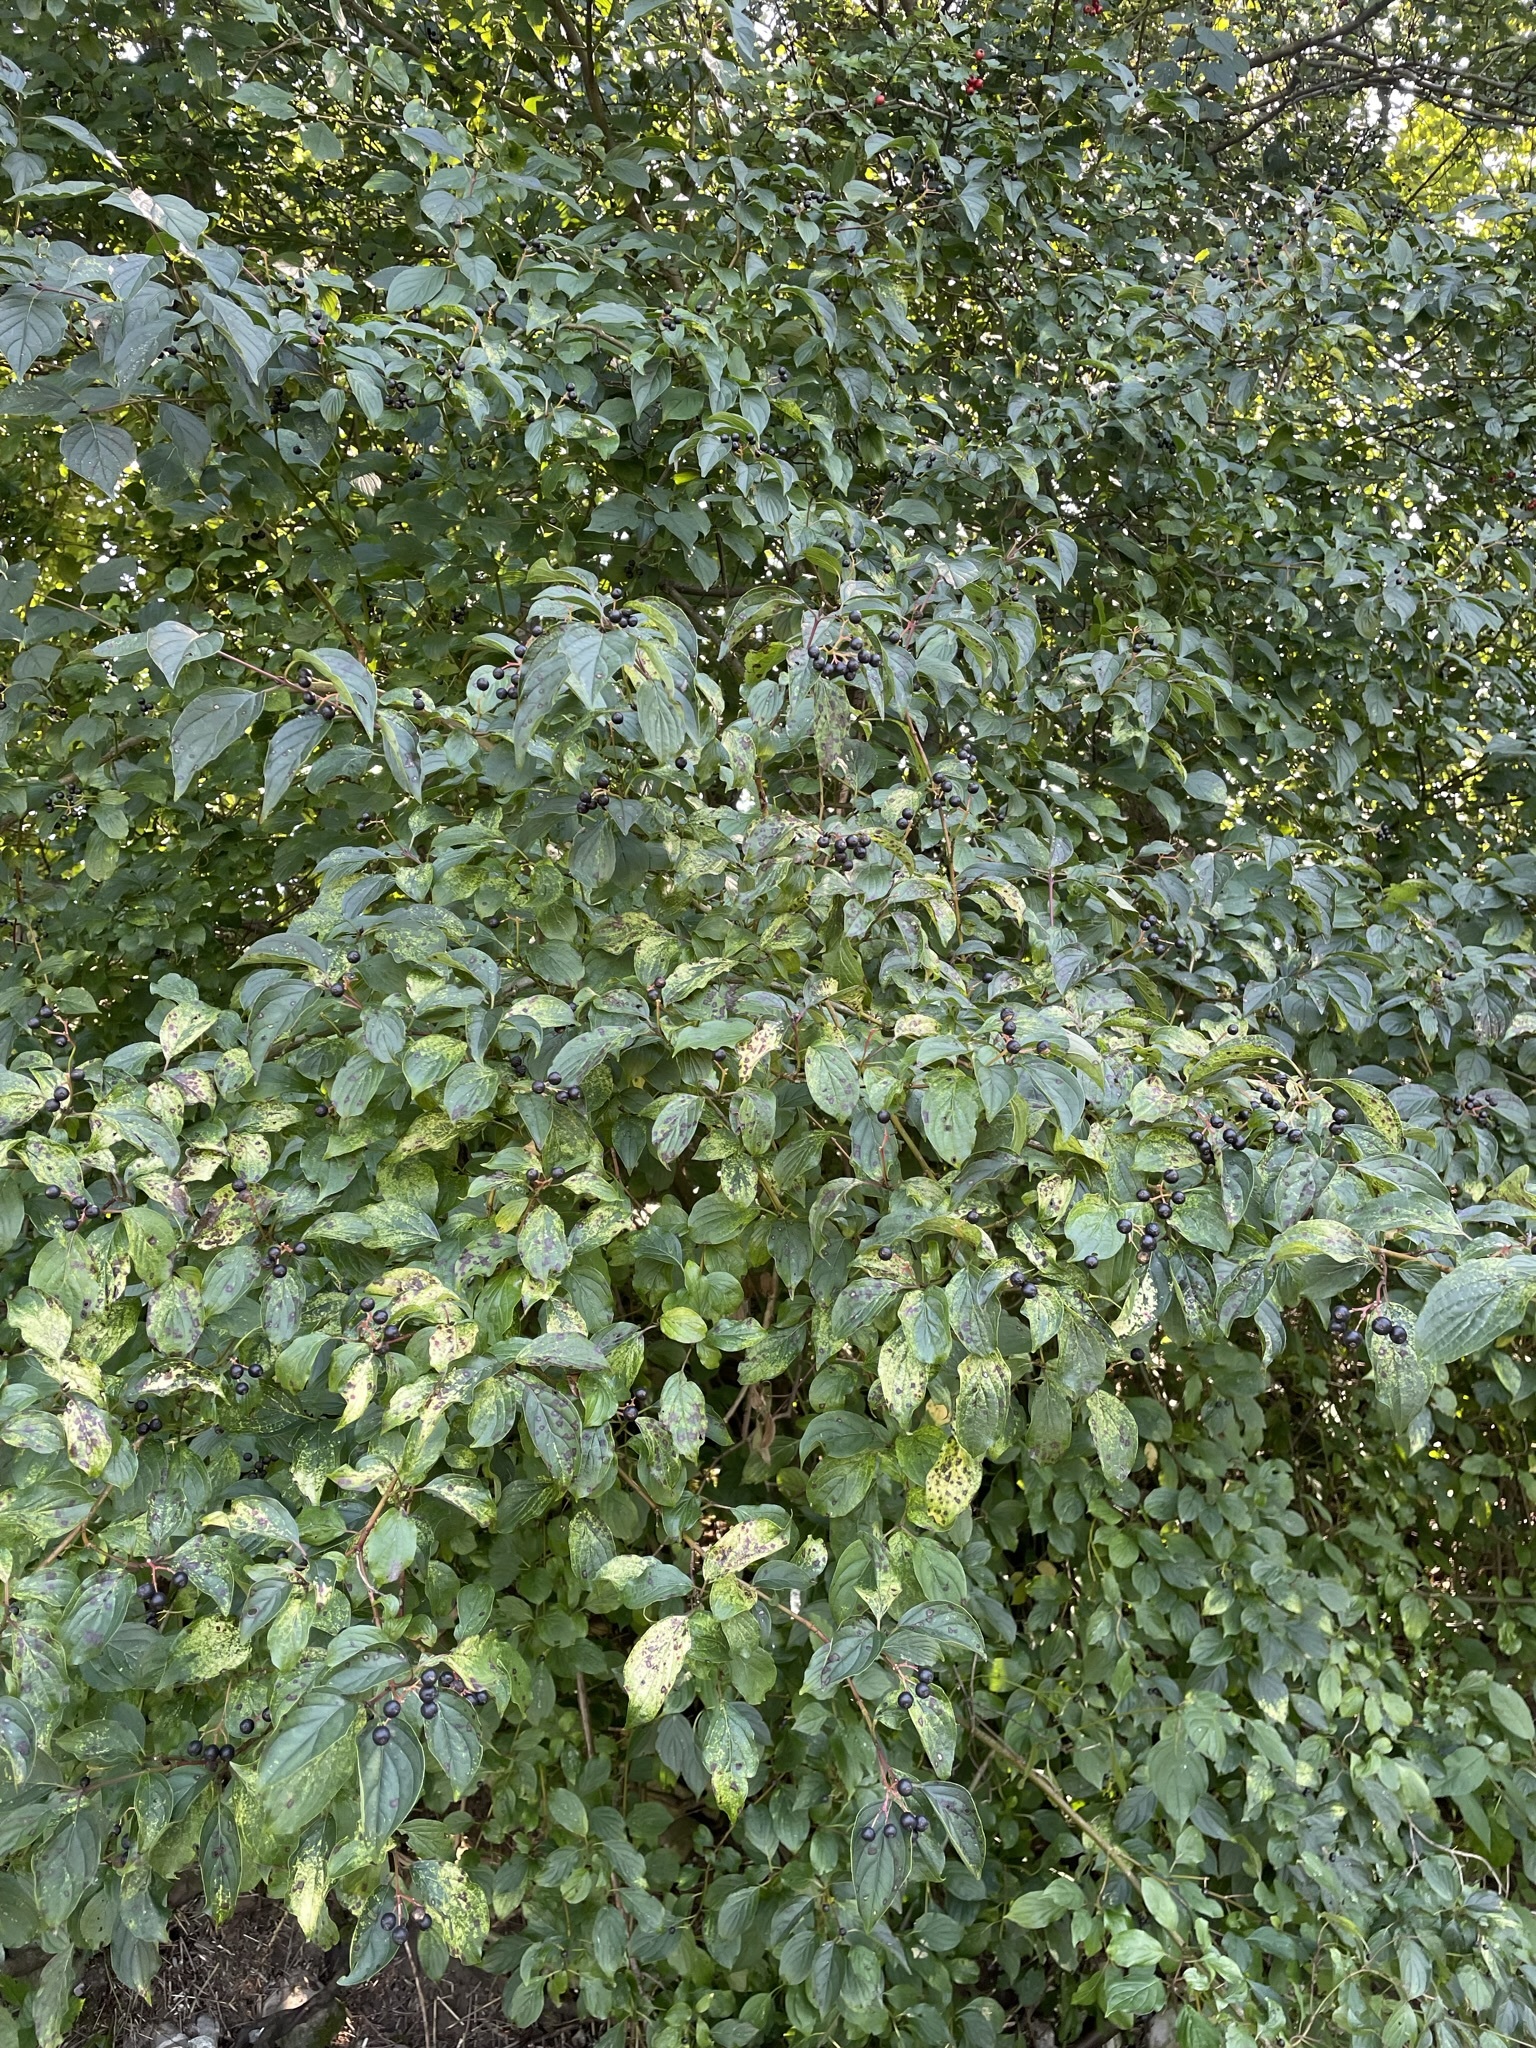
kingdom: Plantae
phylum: Tracheophyta
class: Magnoliopsida
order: Cornales
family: Cornaceae
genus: Cornus
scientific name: Cornus sanguinea
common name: Dogwood
